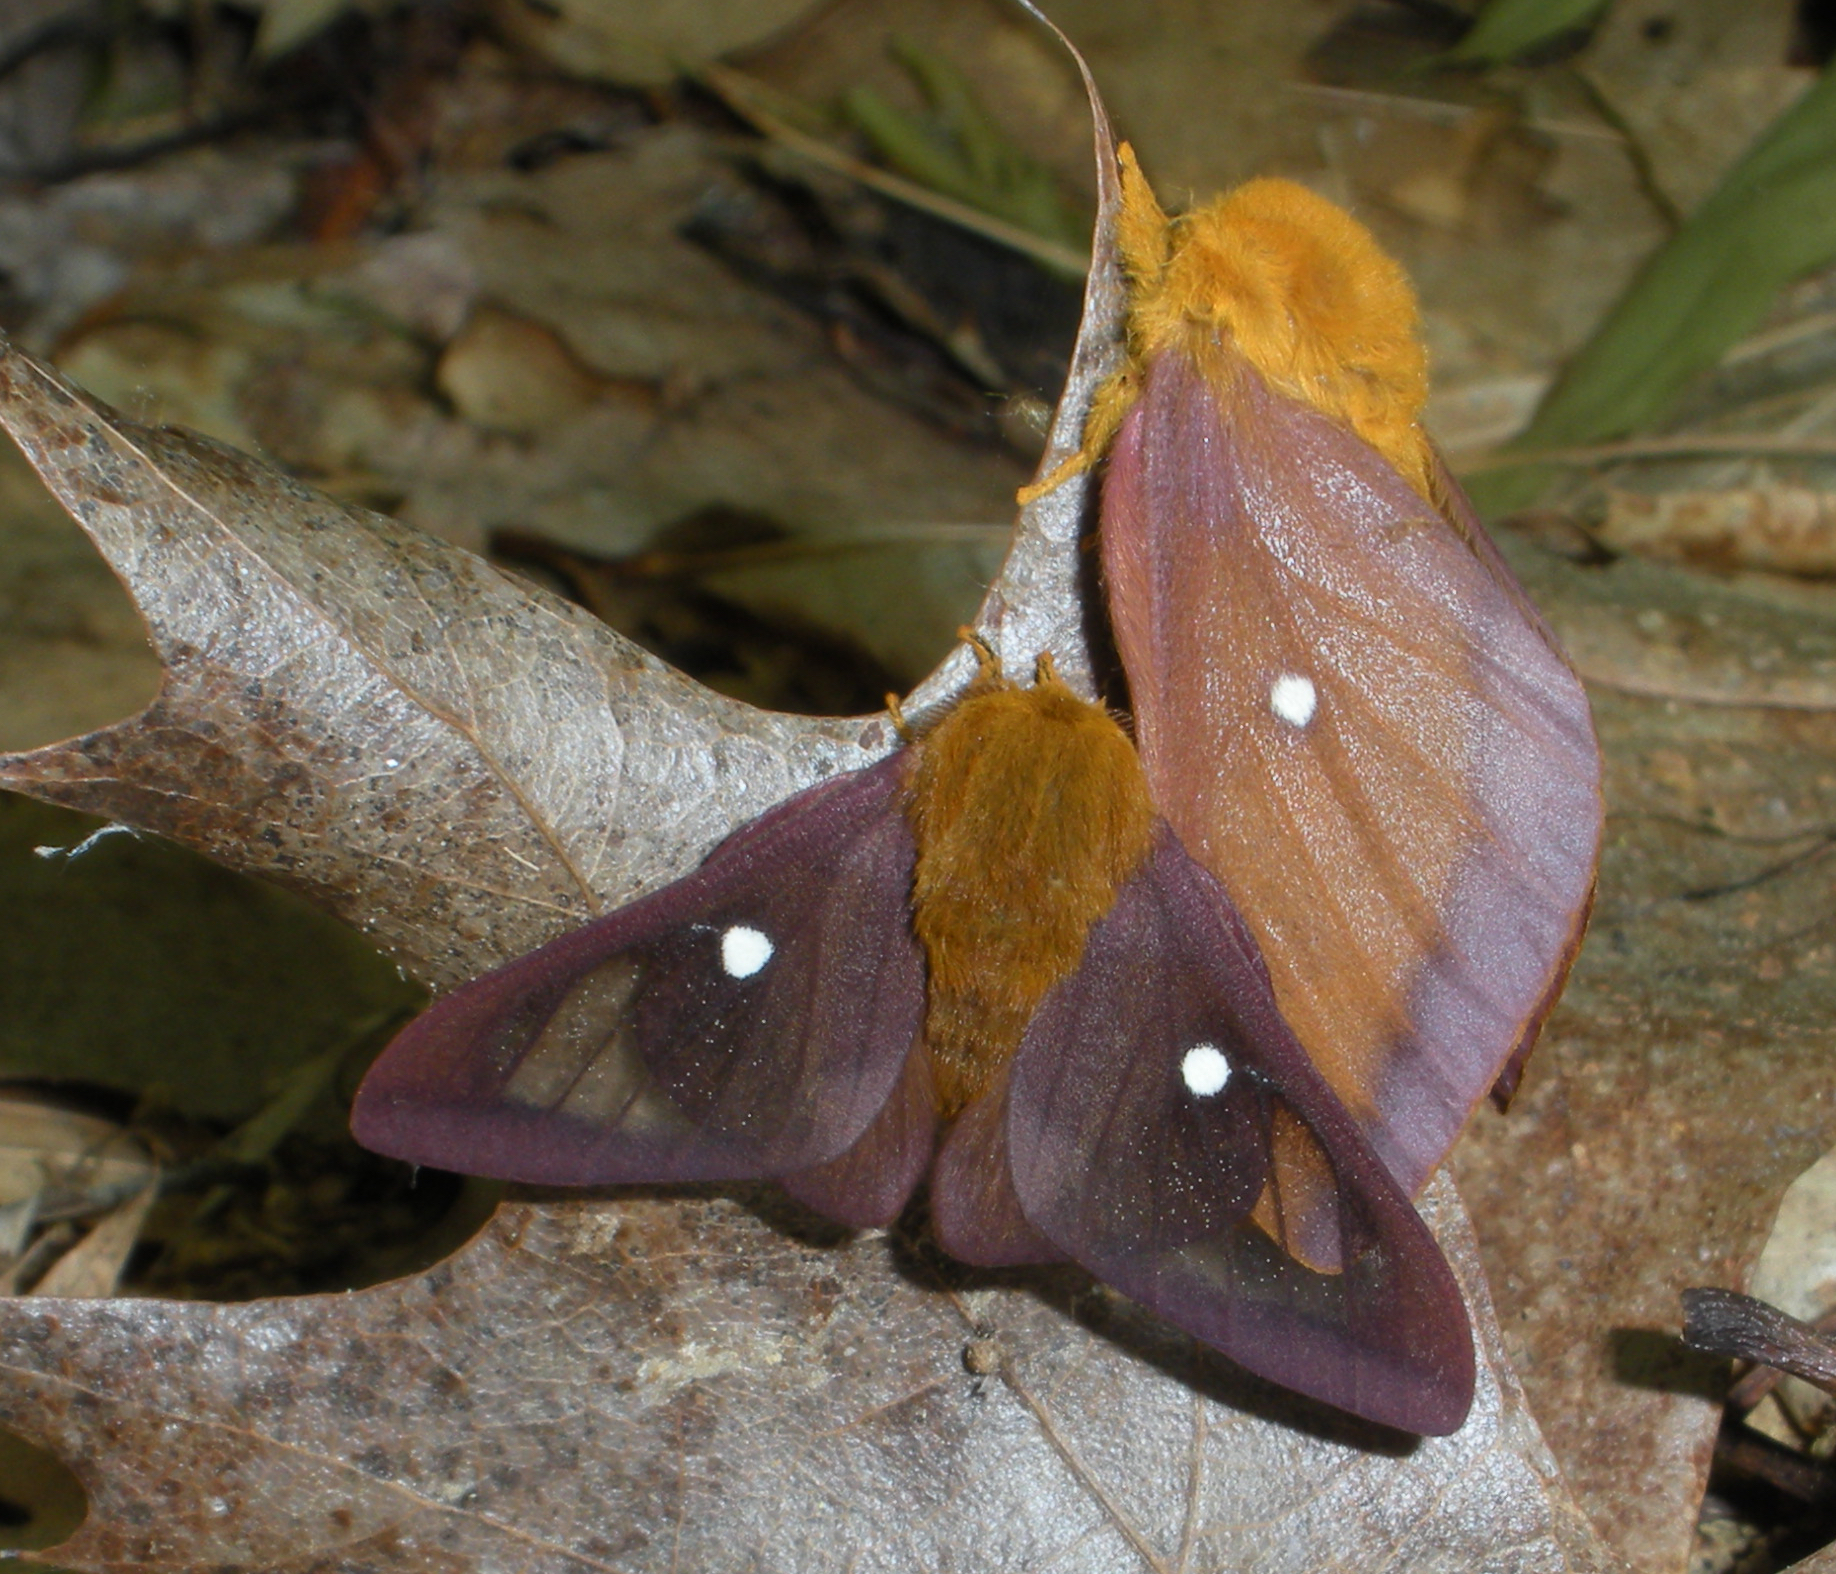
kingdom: Animalia
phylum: Arthropoda
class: Insecta
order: Lepidoptera
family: Saturniidae
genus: Anisota
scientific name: Anisota virginiensis
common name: Pink striped oakworm moth
